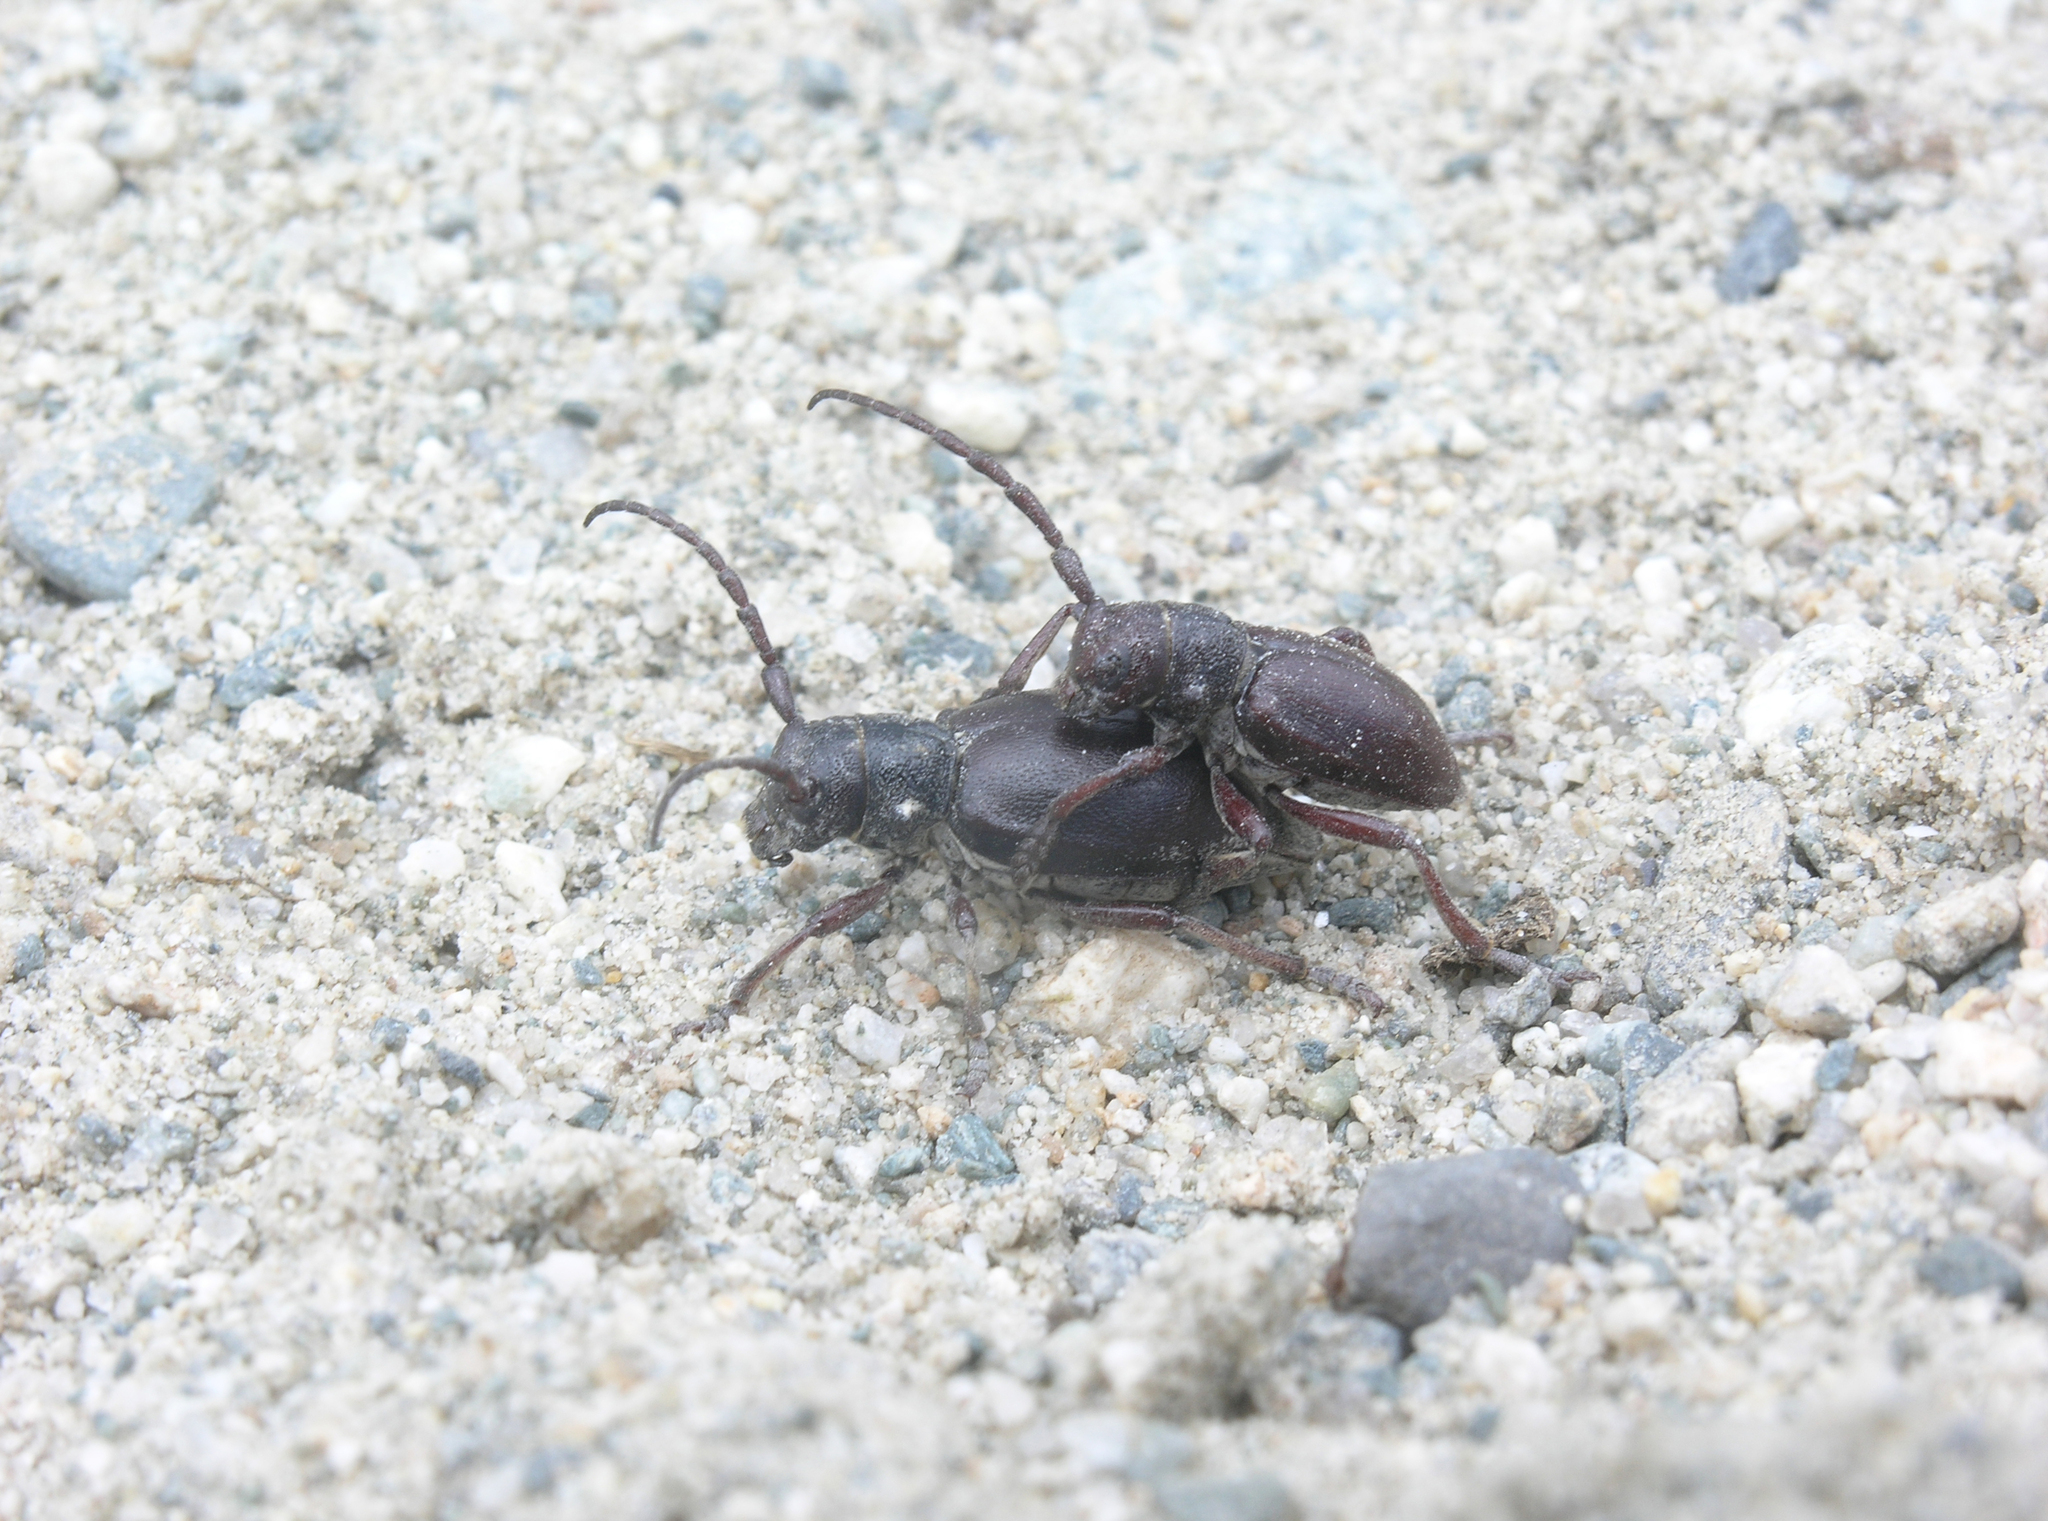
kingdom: Animalia
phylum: Arthropoda
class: Insecta
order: Coleoptera
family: Cerambycidae
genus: Eodorcadion
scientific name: Eodorcadion carinatum
